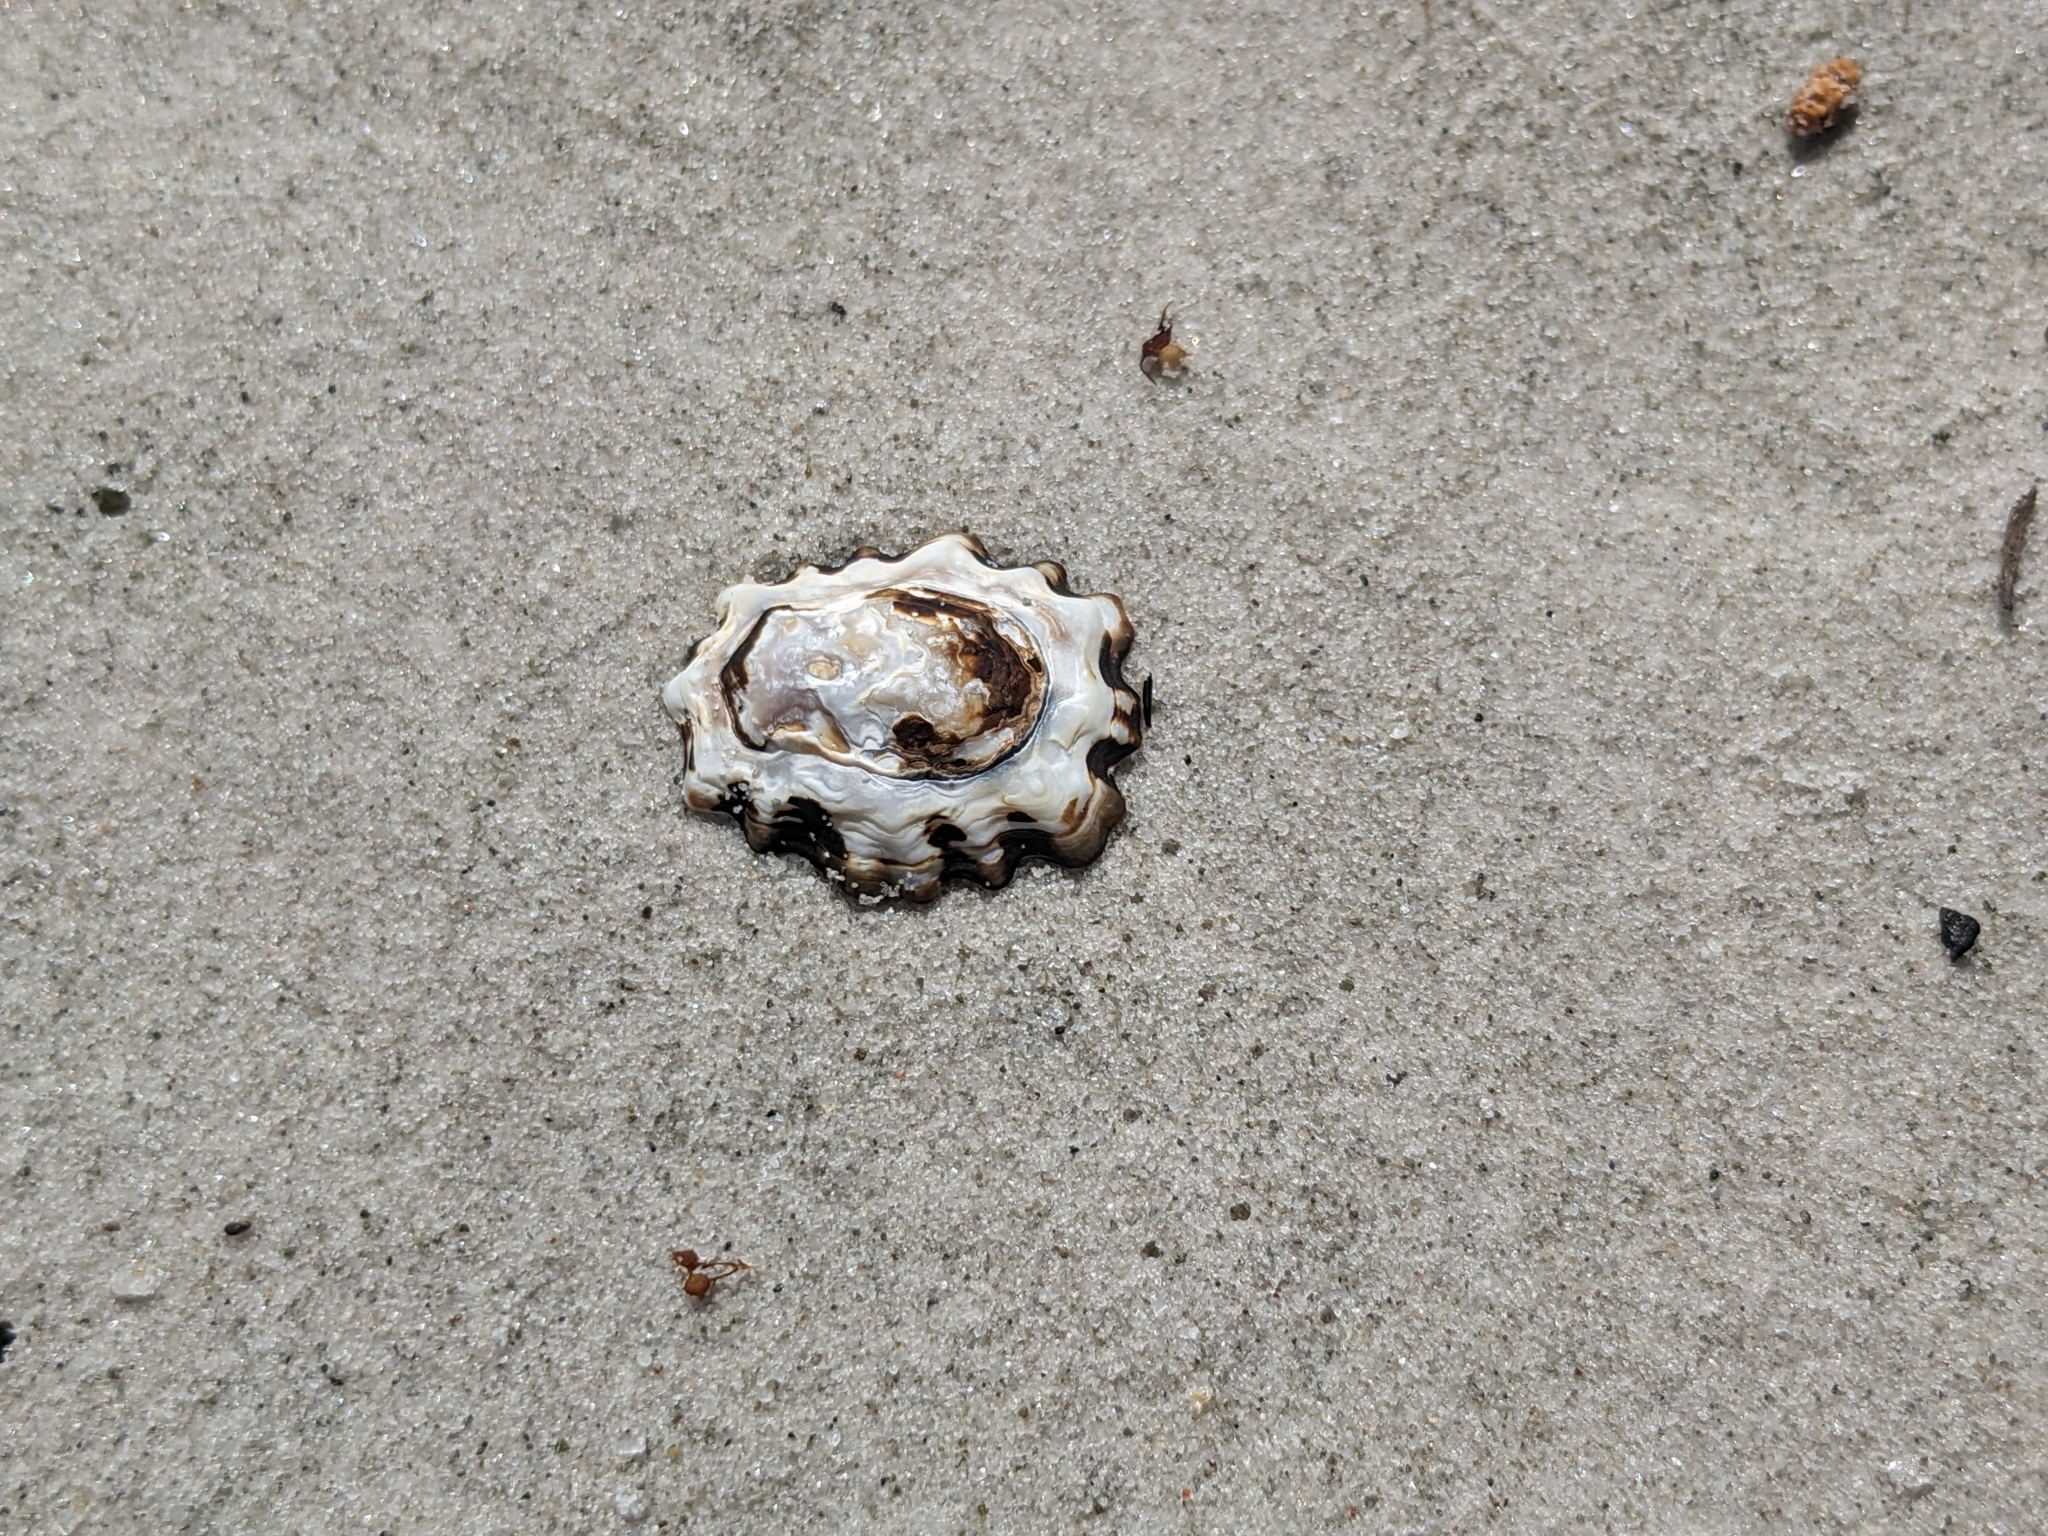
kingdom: Animalia
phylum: Mollusca
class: Gastropoda
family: Lottiidae
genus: Patelloida
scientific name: Patelloida alticostata
